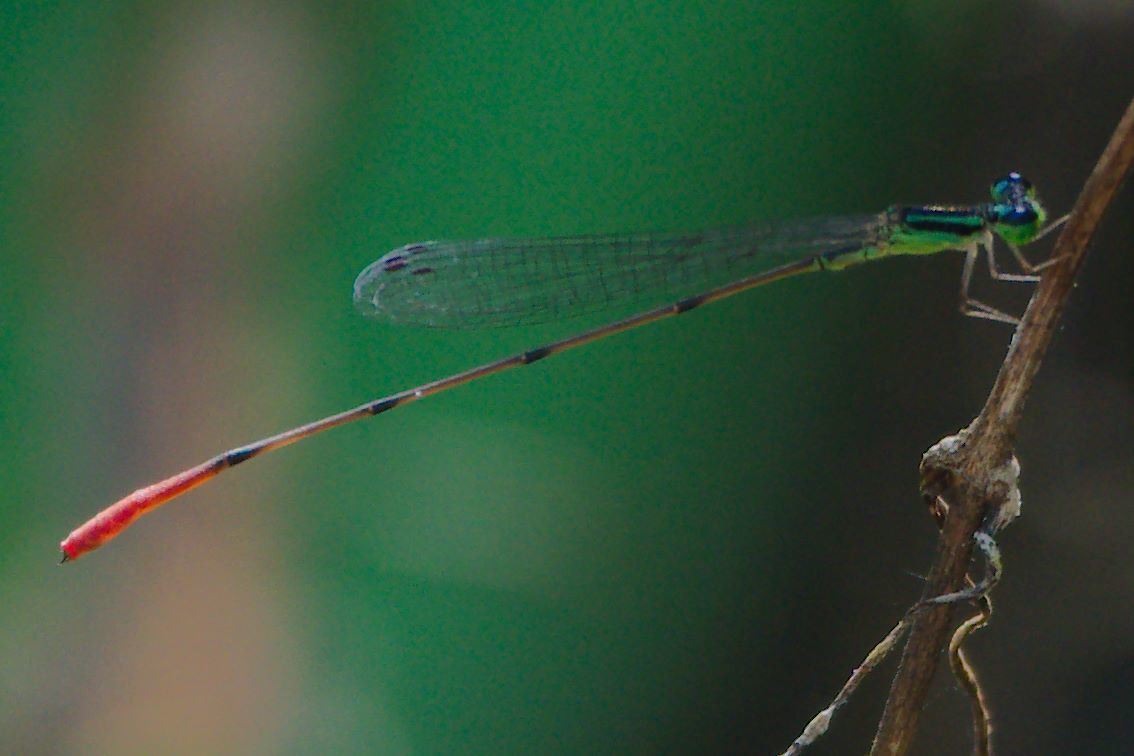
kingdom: Animalia
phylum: Arthropoda
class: Insecta
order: Odonata
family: Coenagrionidae
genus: Leptobasis
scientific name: Leptobasis lucifer
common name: Lucifer swampdamsel
